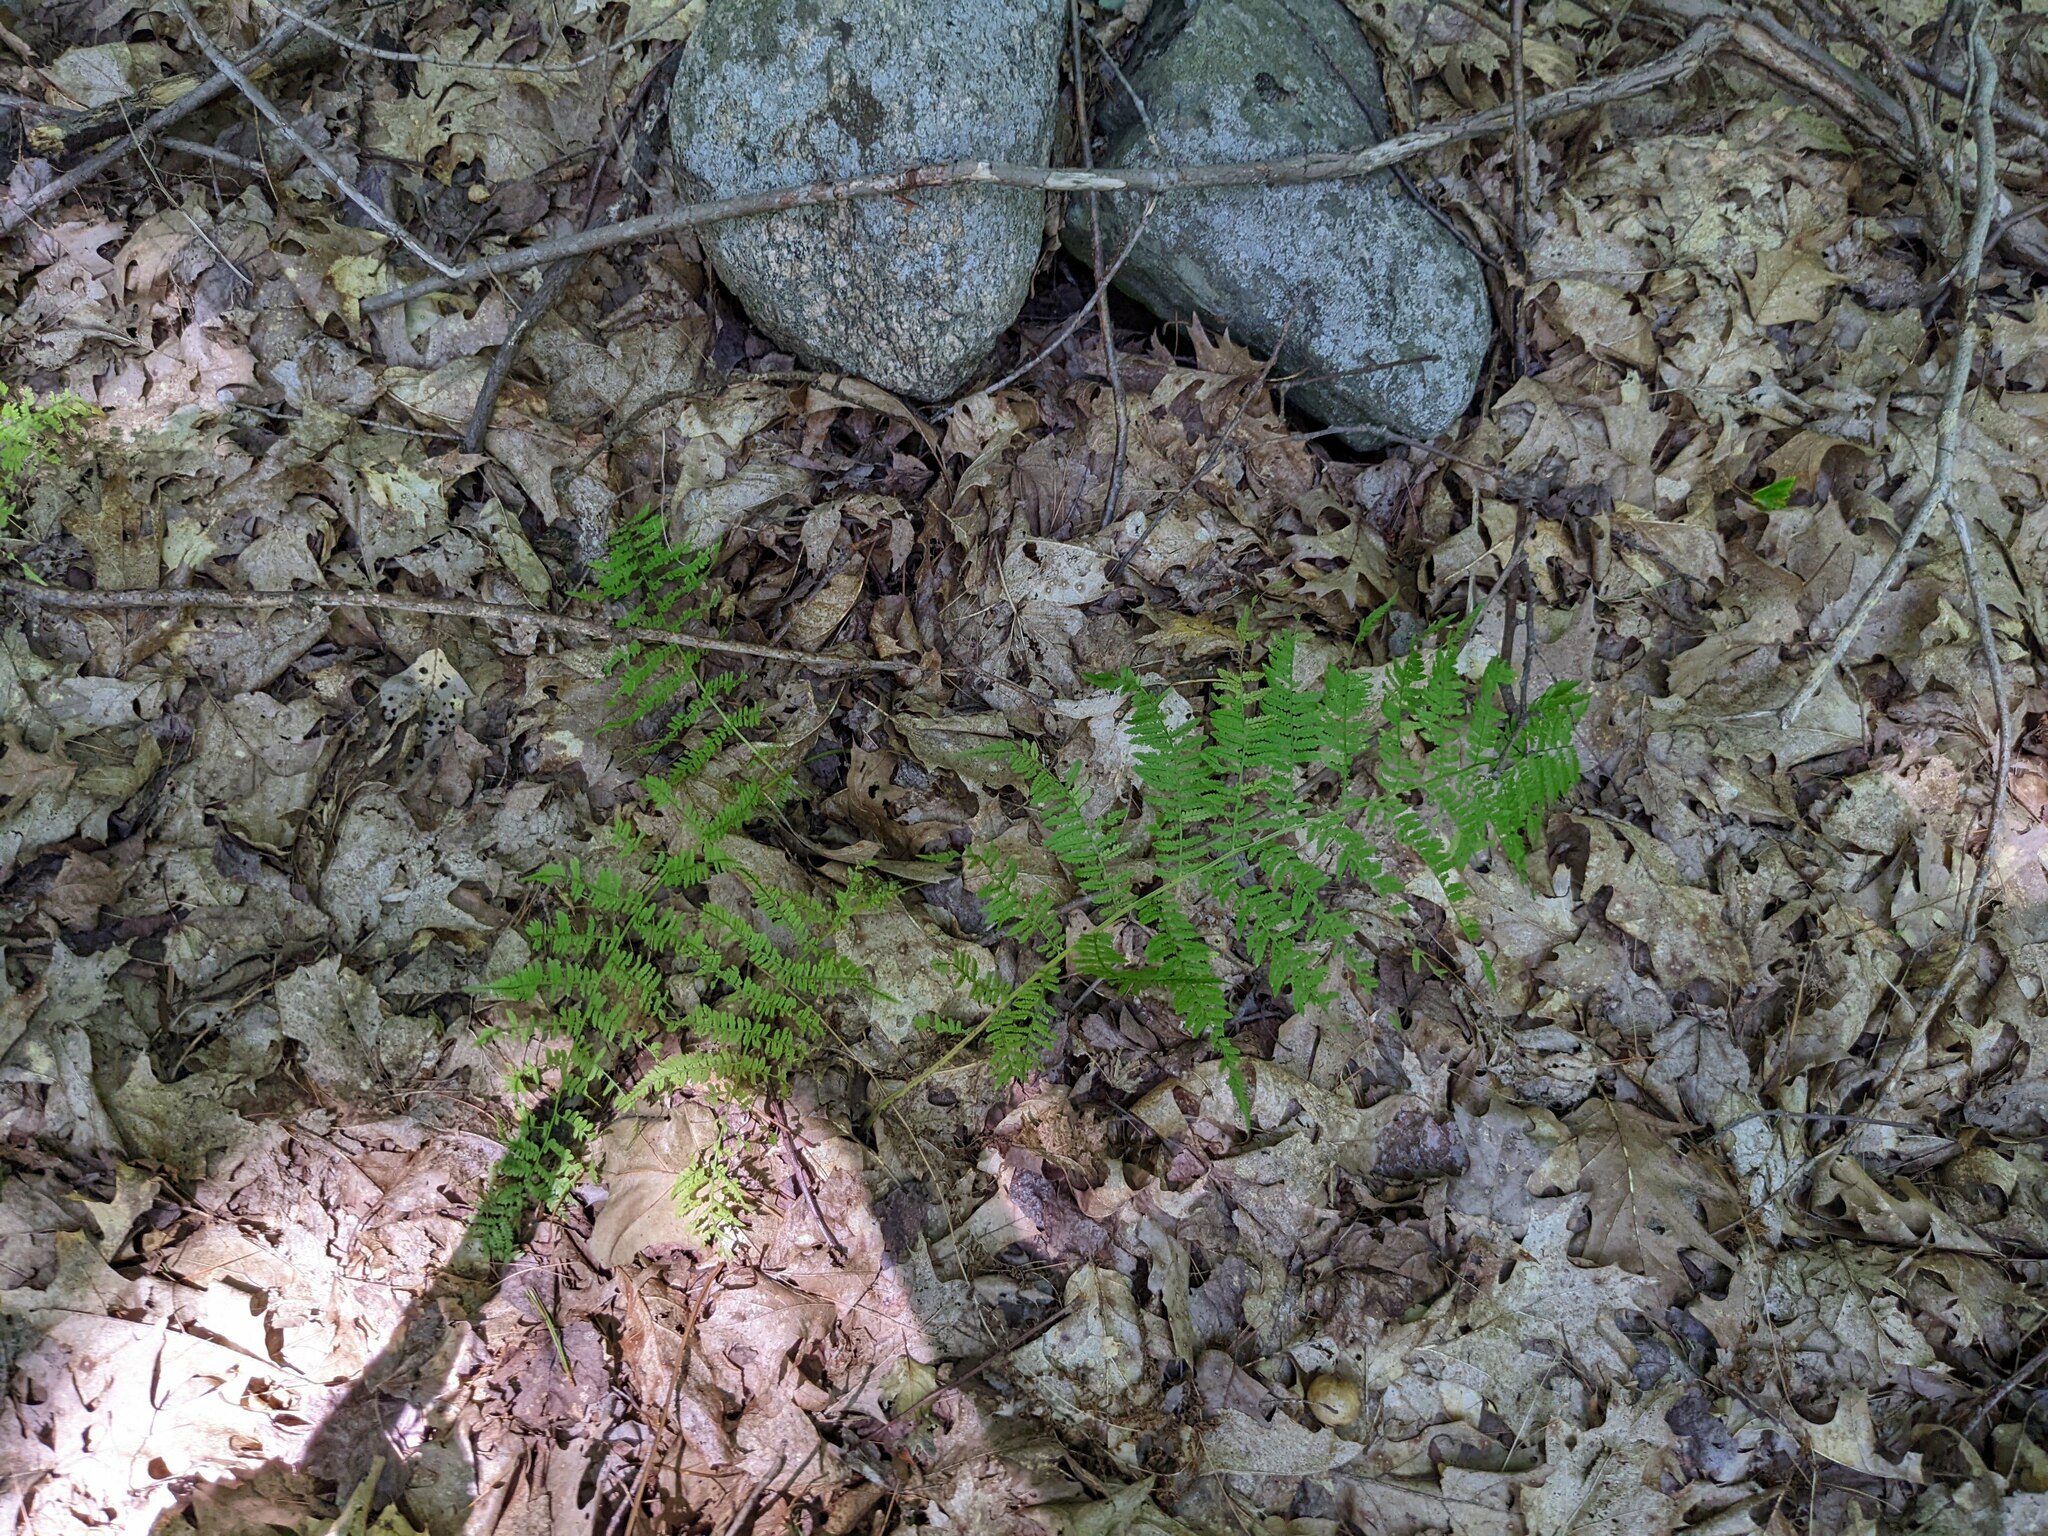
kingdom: Plantae
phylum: Tracheophyta
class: Polypodiopsida
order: Polypodiales
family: Athyriaceae
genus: Athyrium
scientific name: Athyrium angustum
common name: Northern lady fern
